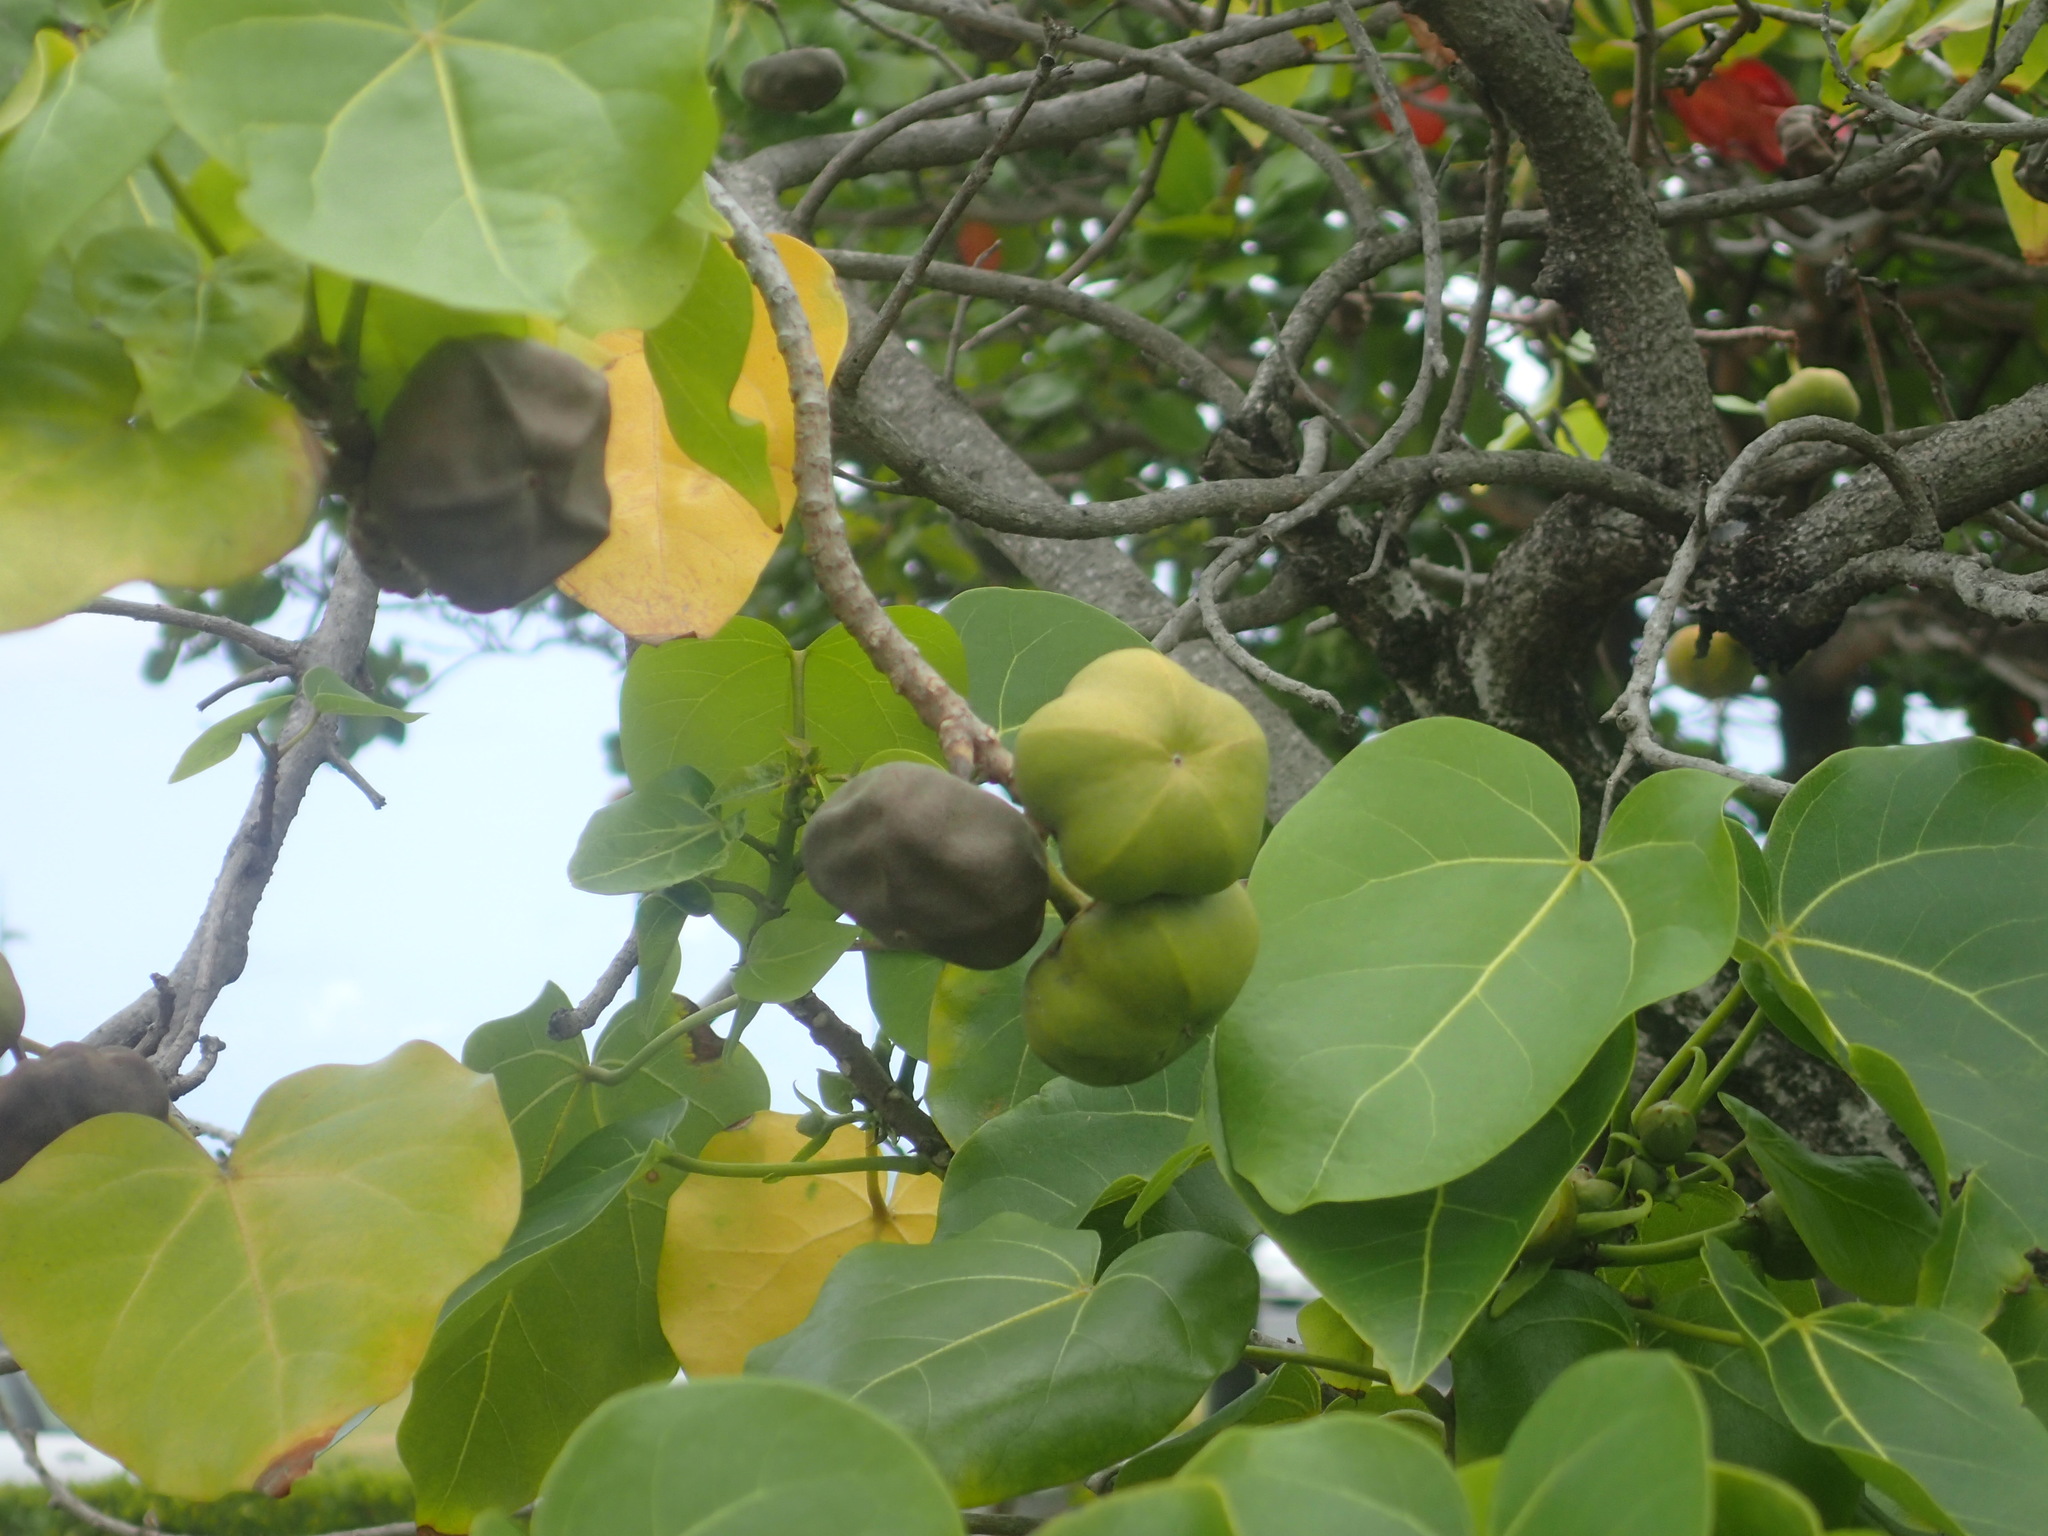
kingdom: Plantae
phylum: Tracheophyta
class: Magnoliopsida
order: Malvales
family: Malvaceae
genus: Thespesia
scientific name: Thespesia populnea
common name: Seaside mahoe
